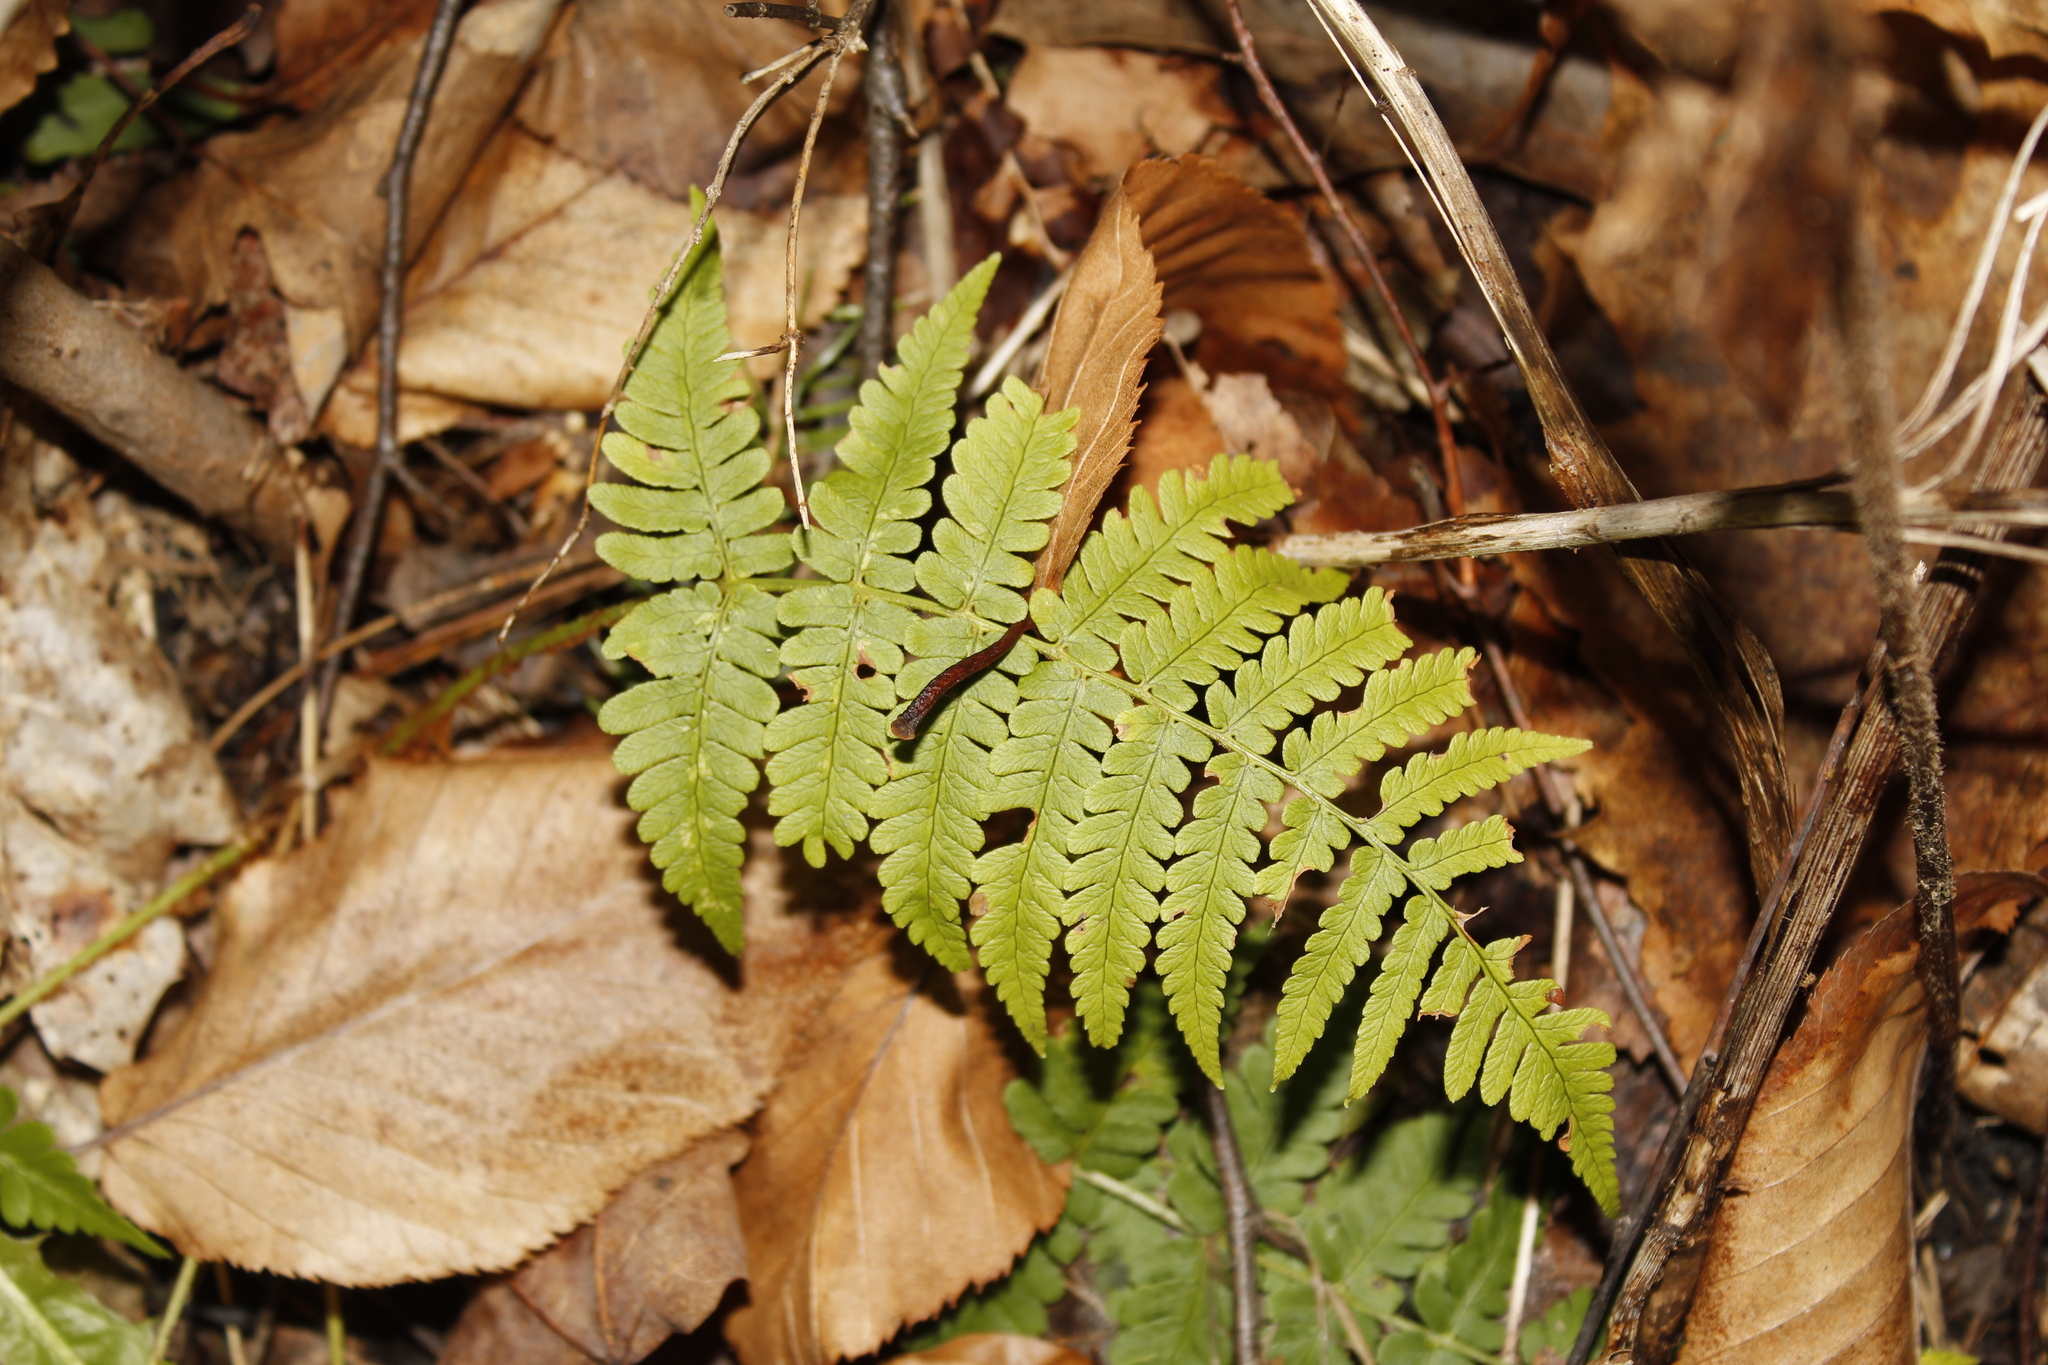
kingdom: Plantae
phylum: Tracheophyta
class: Polypodiopsida
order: Polypodiales
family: Dryopteridaceae
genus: Dryopteris
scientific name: Dryopteris marginalis
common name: Marginal wood fern
